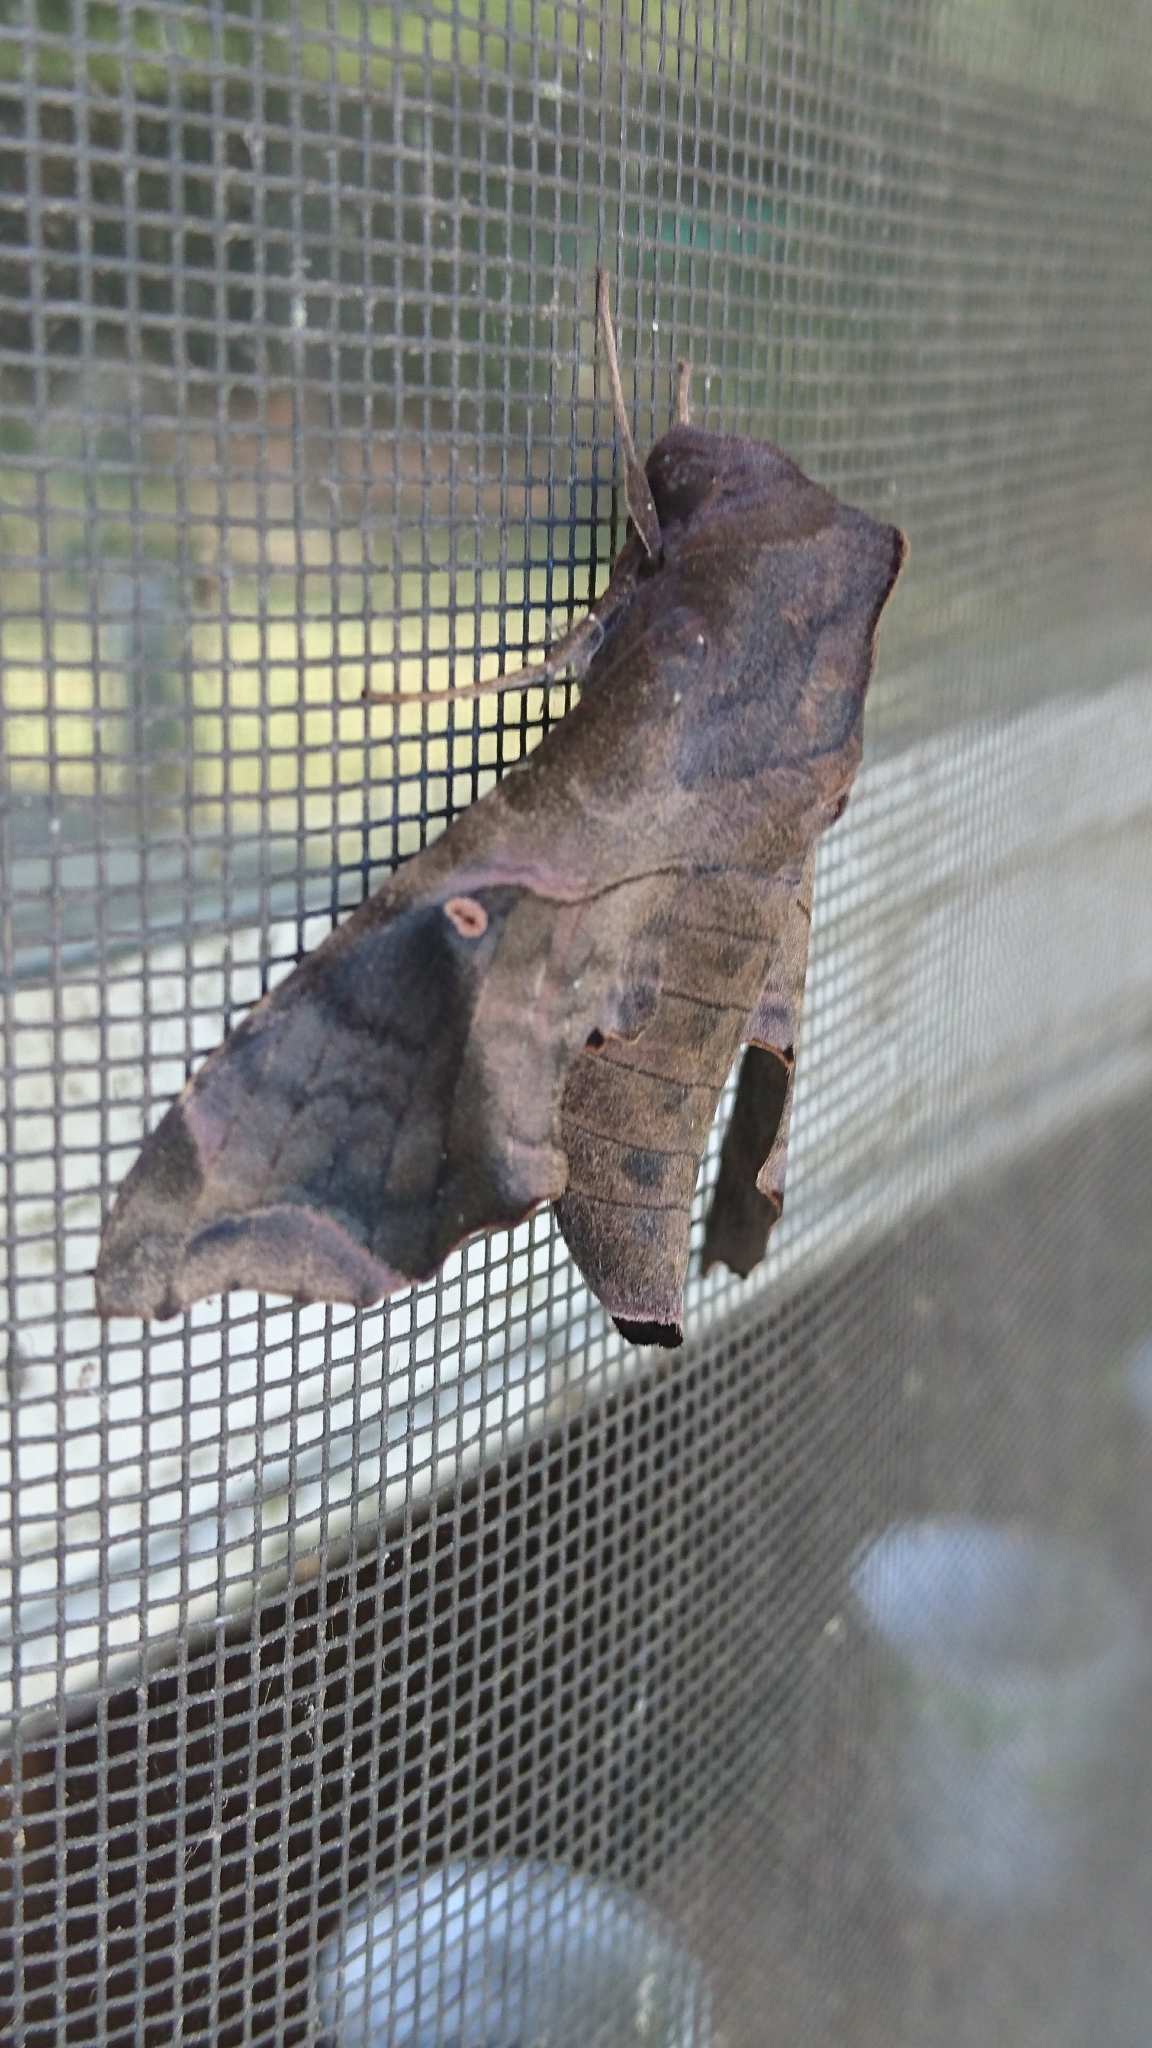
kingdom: Animalia
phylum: Arthropoda
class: Insecta
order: Lepidoptera
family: Sphingidae
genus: Enyo
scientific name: Enyo lugubris
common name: Mournful sphinx
